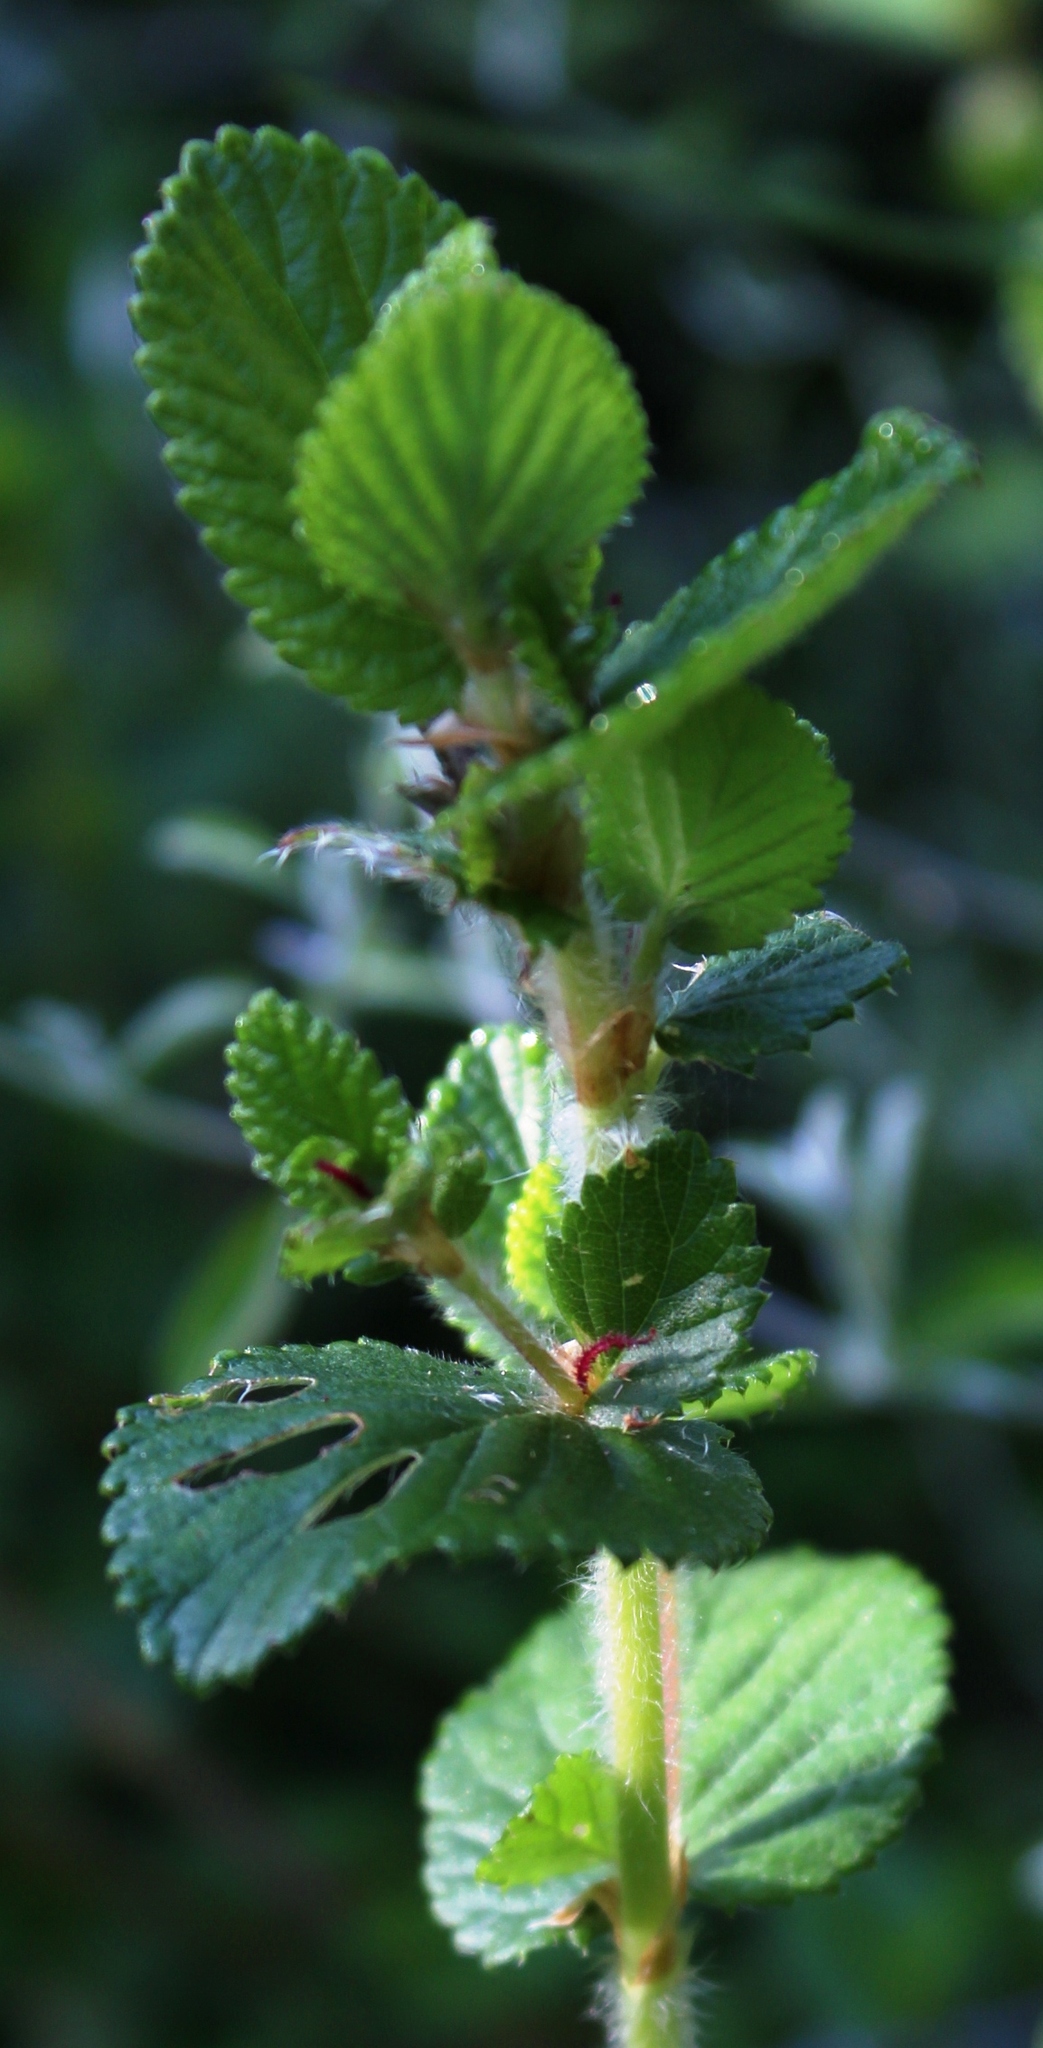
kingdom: Plantae
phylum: Tracheophyta
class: Magnoliopsida
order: Rosales
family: Rosaceae
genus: Cliffortia
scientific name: Cliffortia odorata
